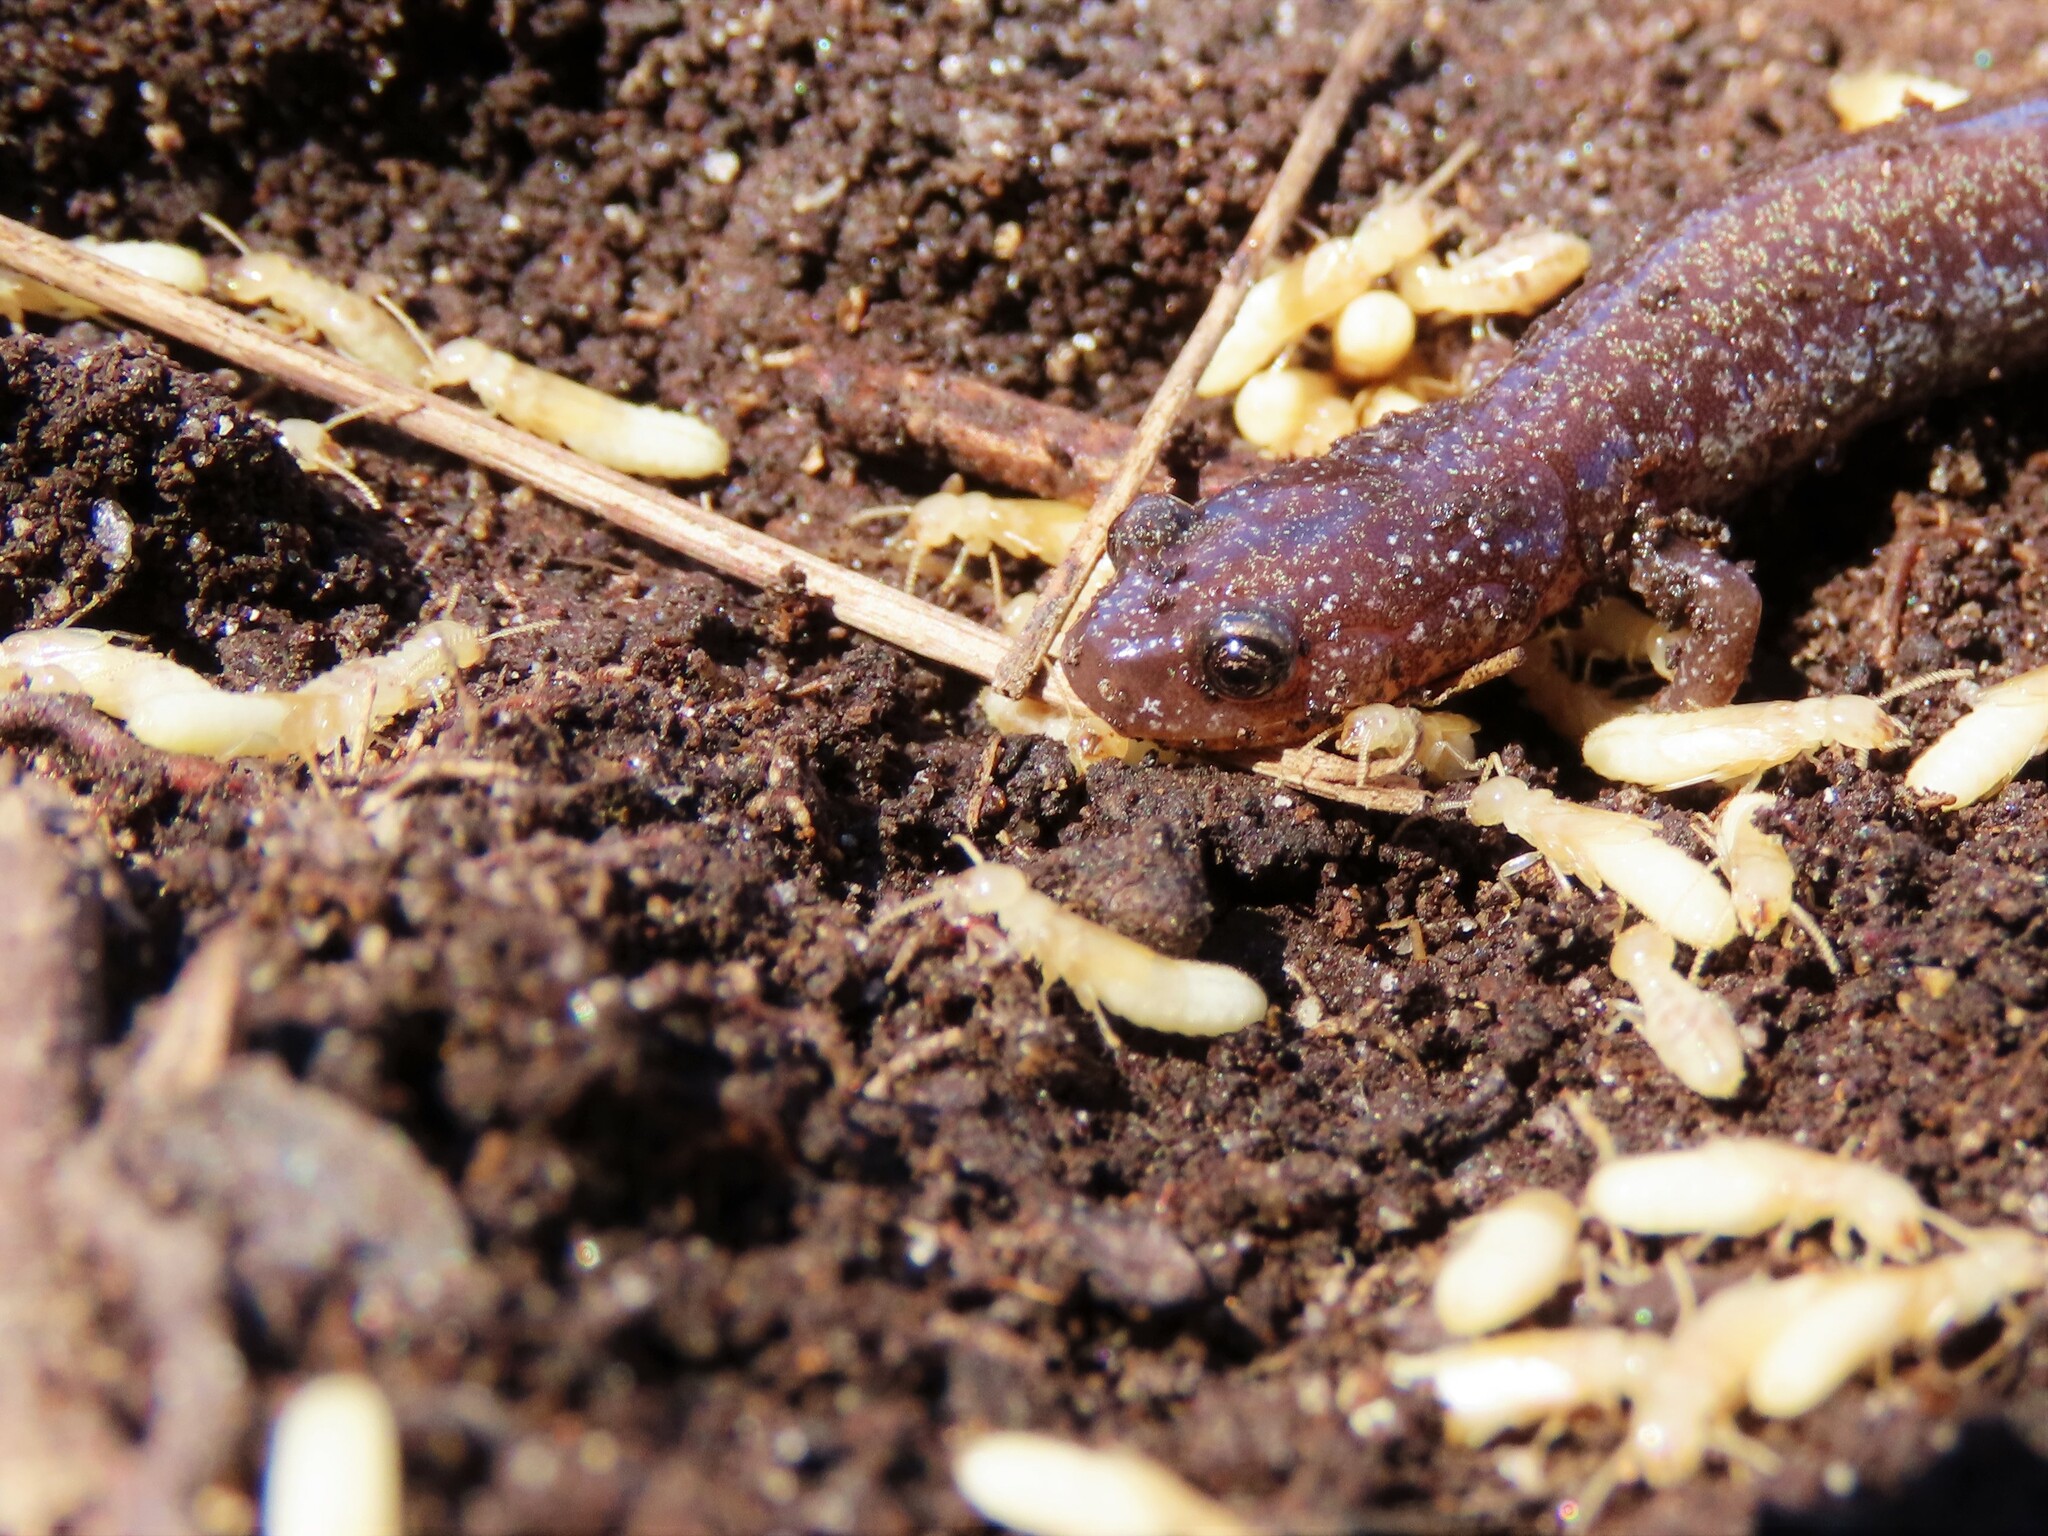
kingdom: Animalia
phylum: Chordata
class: Amphibia
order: Caudata
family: Plethodontidae
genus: Plethodon
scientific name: Plethodon cinereus
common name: Redback salamander
